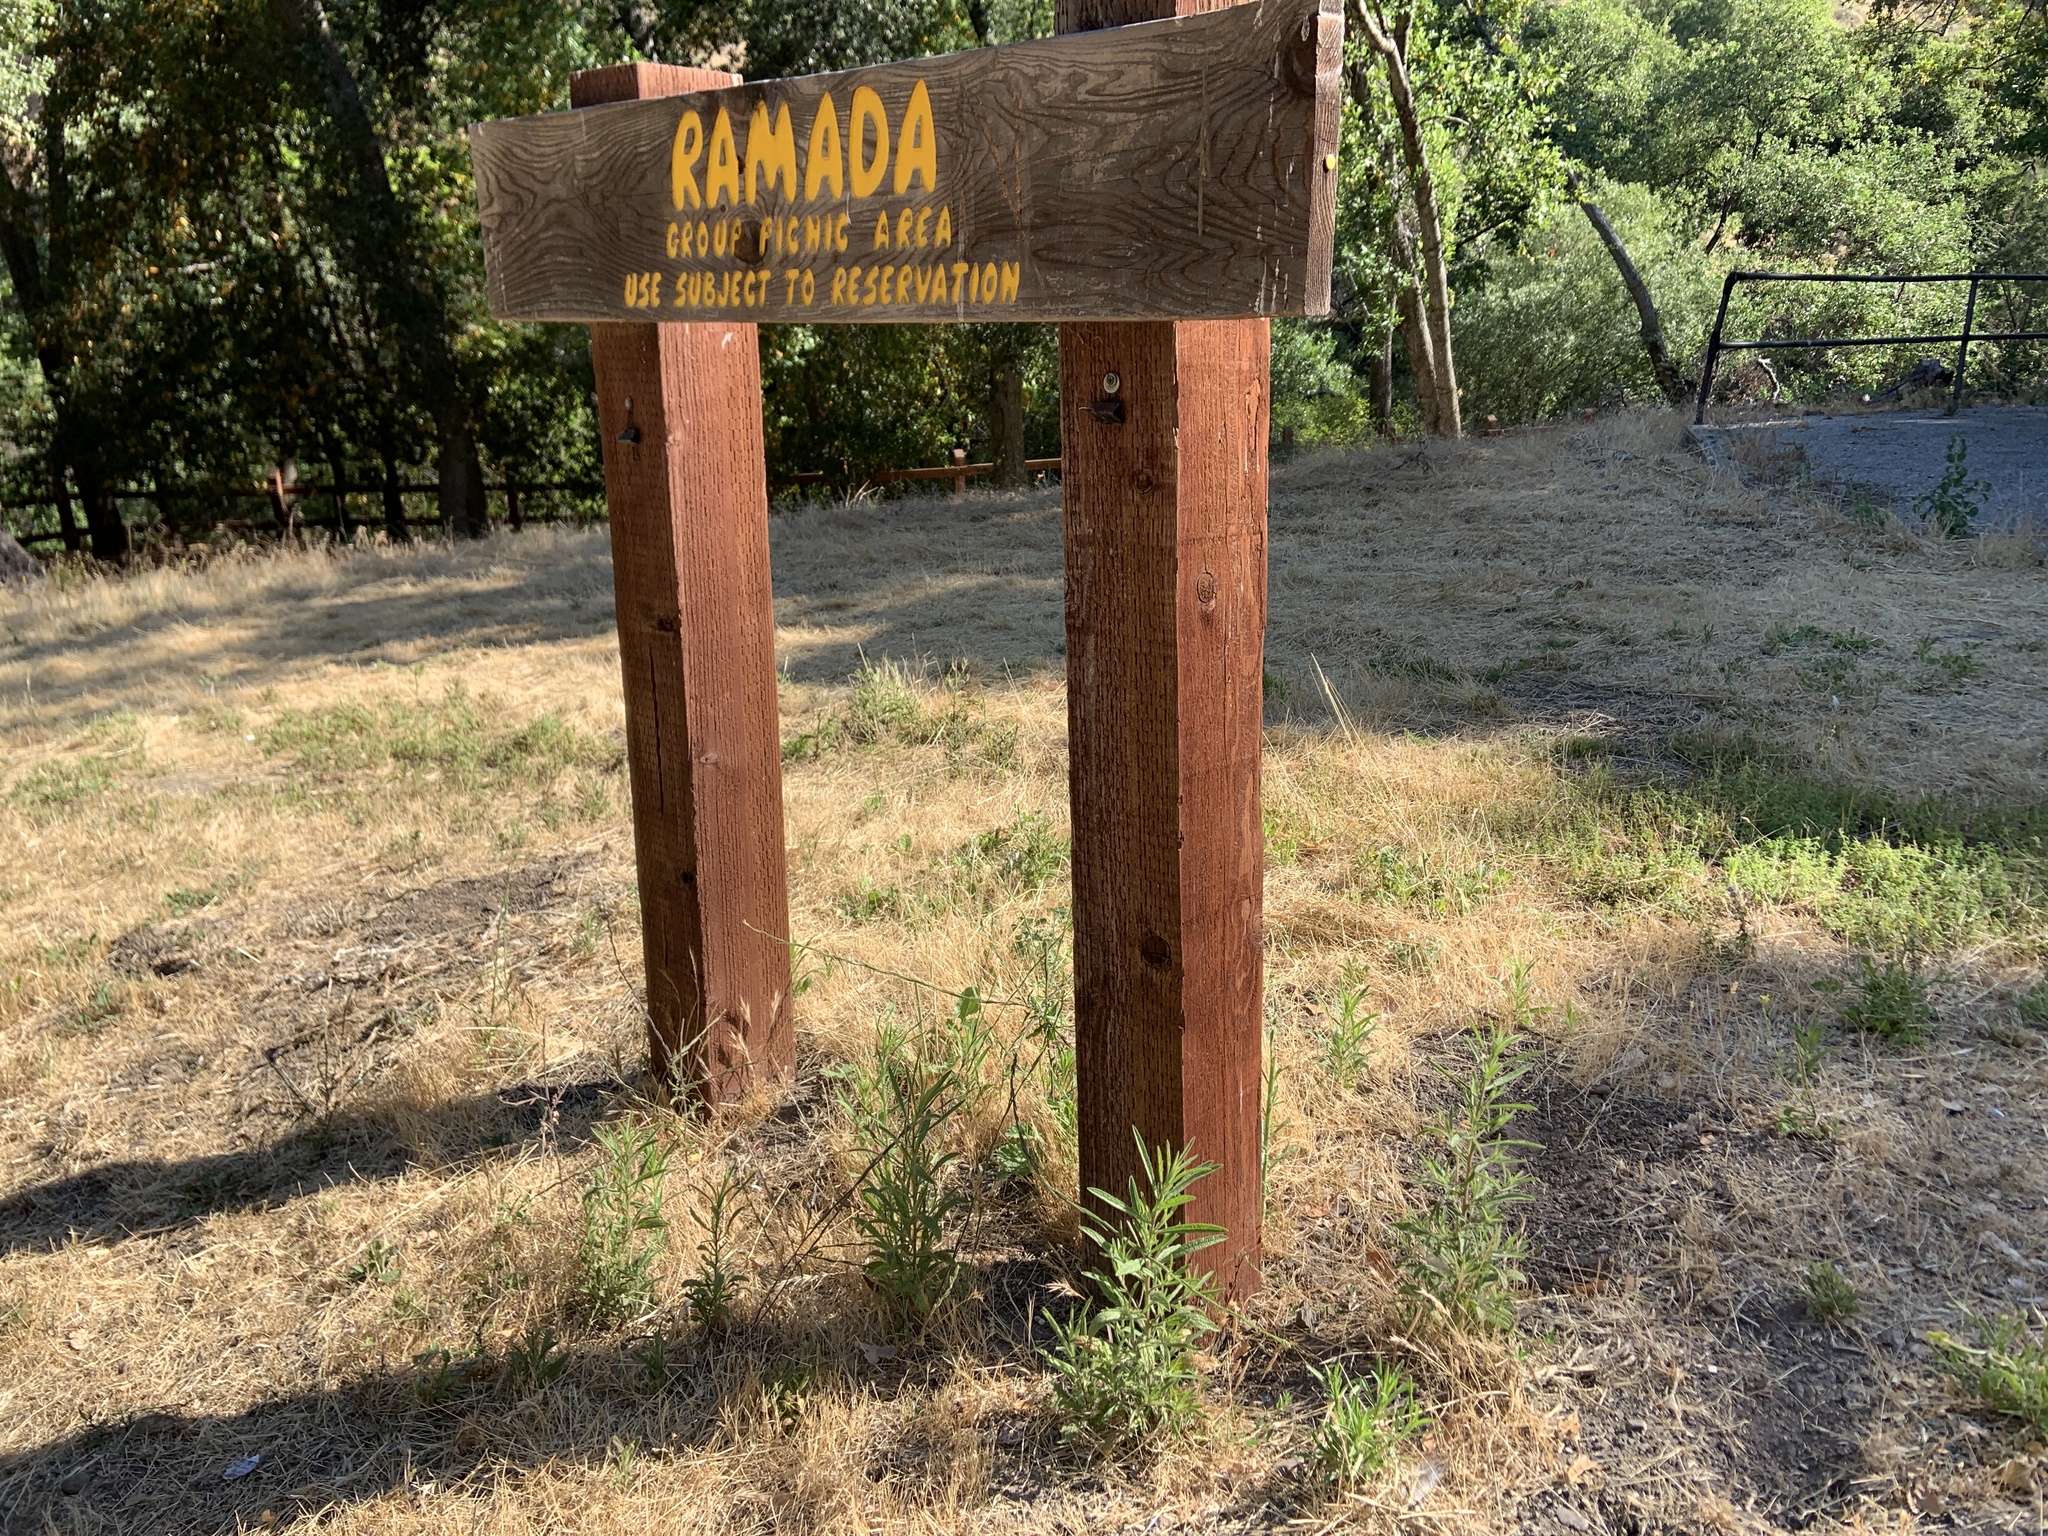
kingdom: Plantae
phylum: Tracheophyta
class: Magnoliopsida
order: Asterales
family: Asteraceae
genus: Dittrichia
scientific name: Dittrichia graveolens
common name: Stinking fleabane
